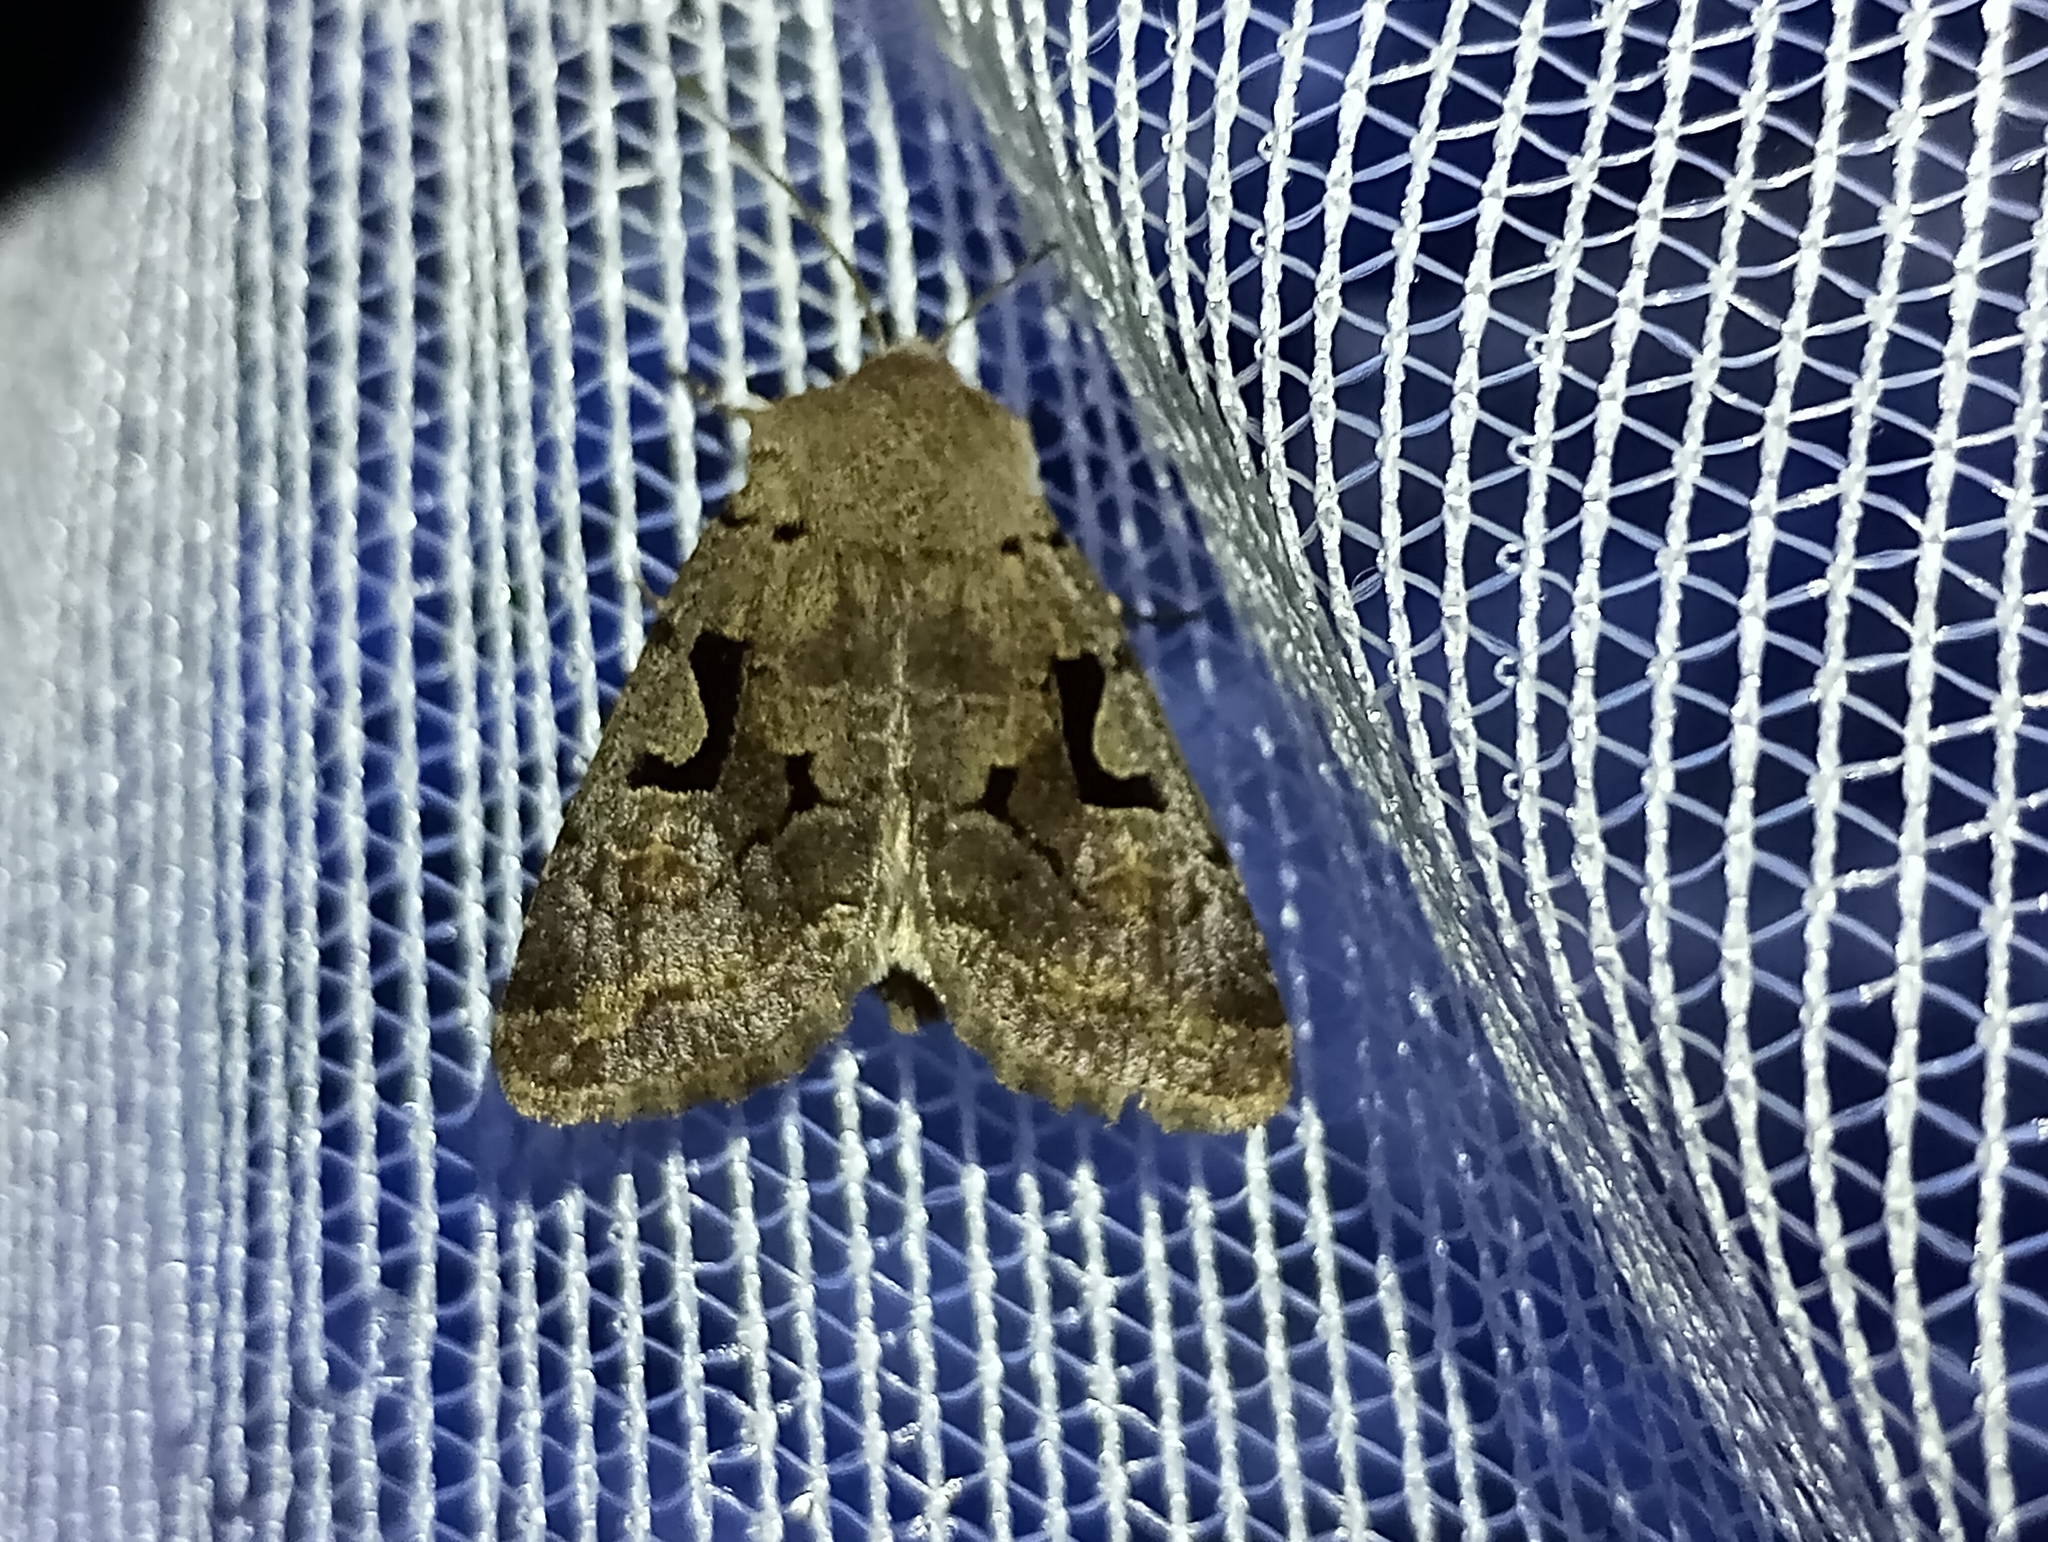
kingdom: Animalia
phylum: Arthropoda
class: Insecta
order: Lepidoptera
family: Noctuidae
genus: Orthosia
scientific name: Orthosia gothica
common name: Hebrew character
